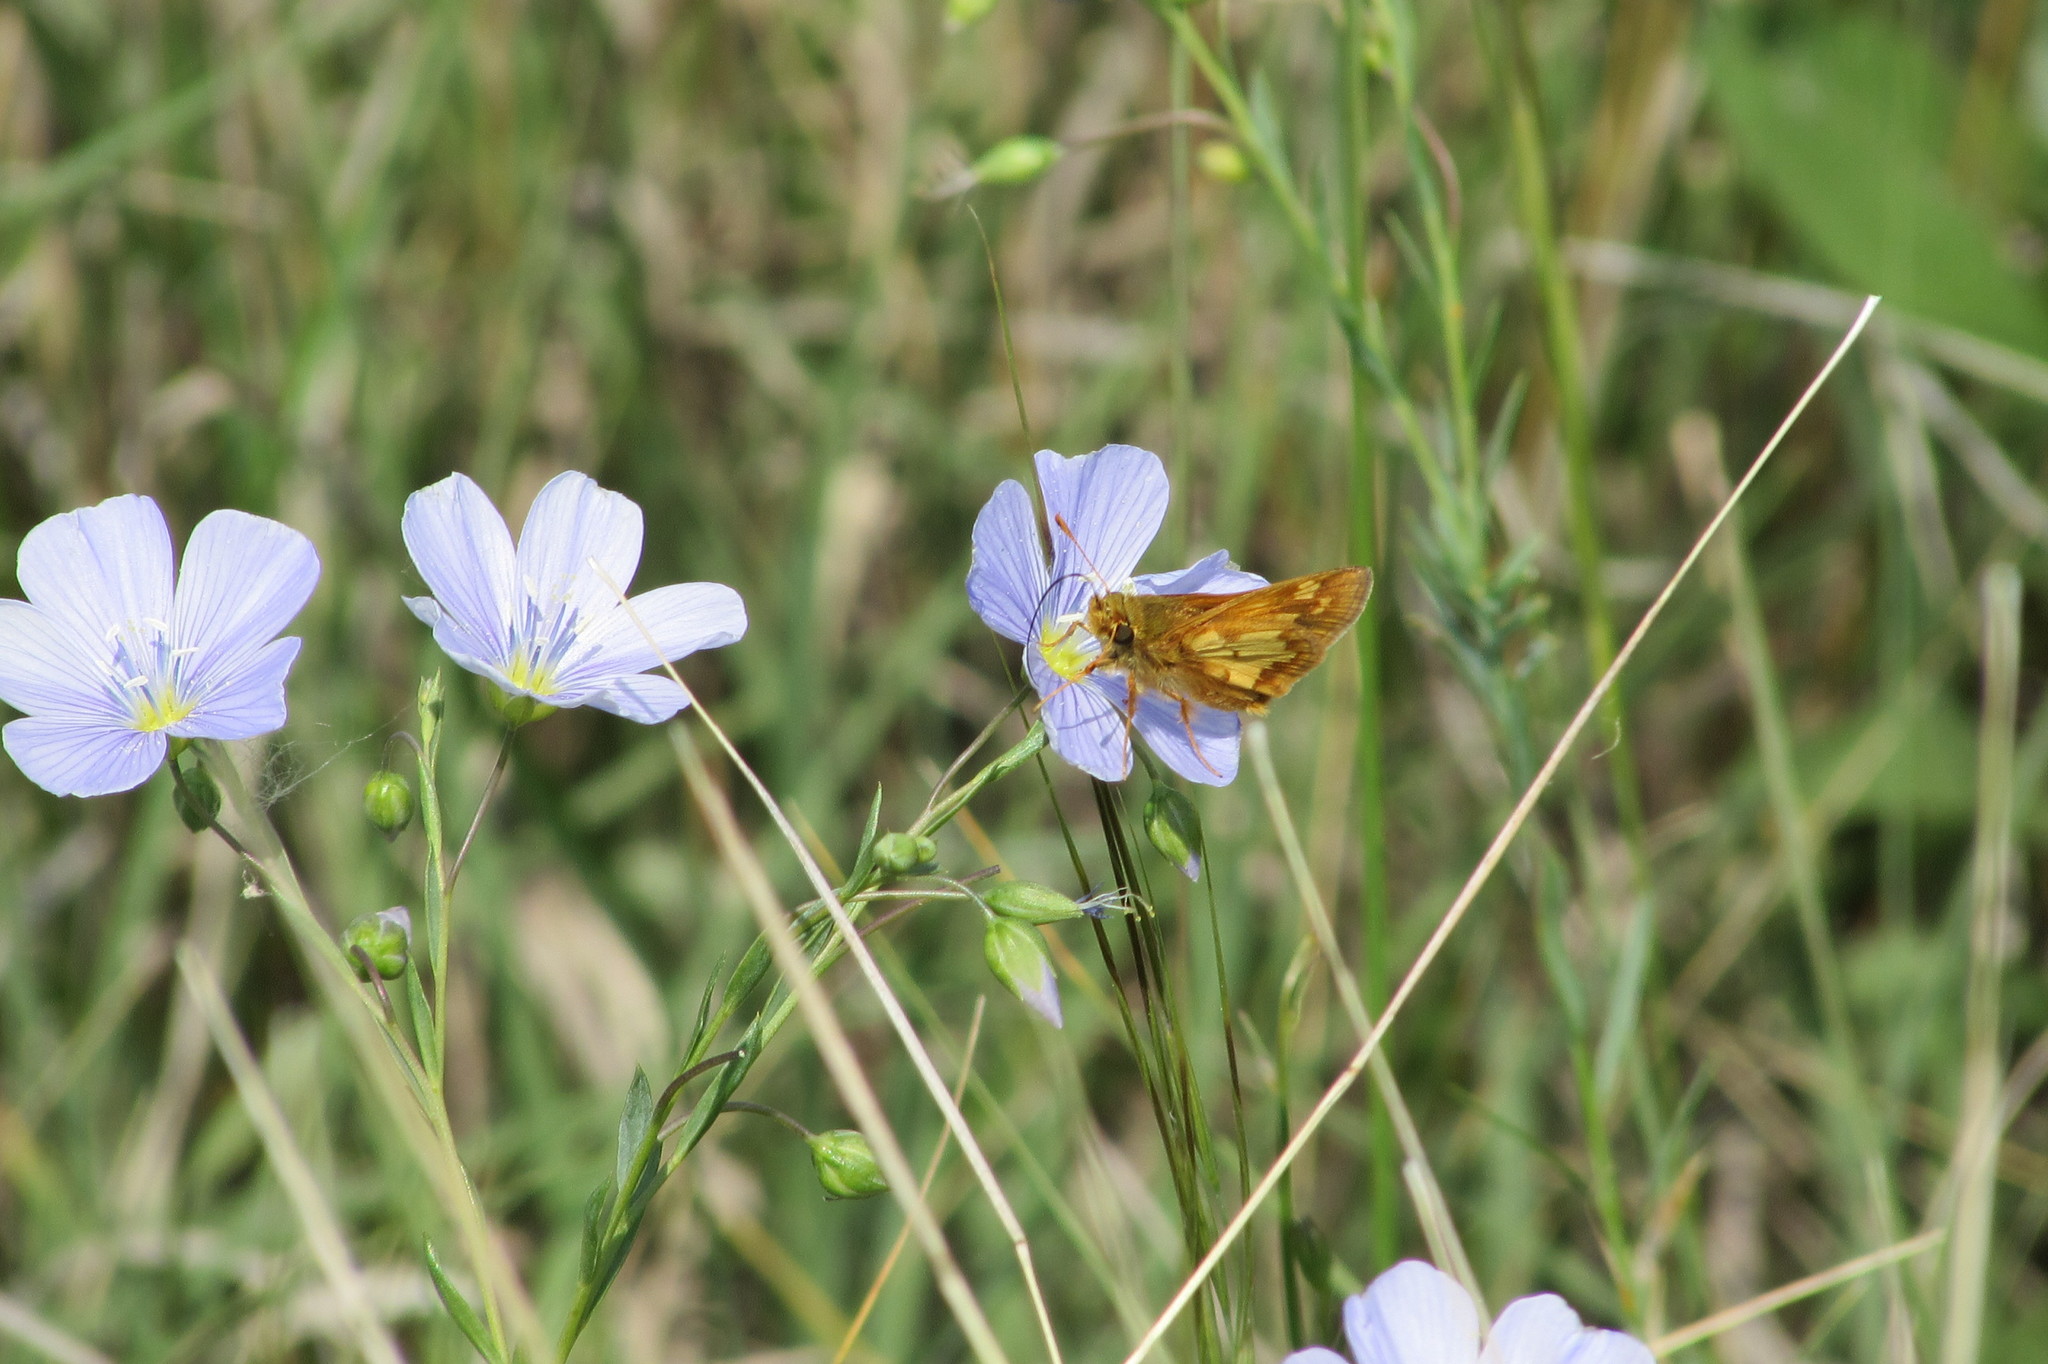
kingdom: Animalia
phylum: Arthropoda
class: Insecta
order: Lepidoptera
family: Hesperiidae
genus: Polites
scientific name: Polites coras
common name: Peck's skipper
